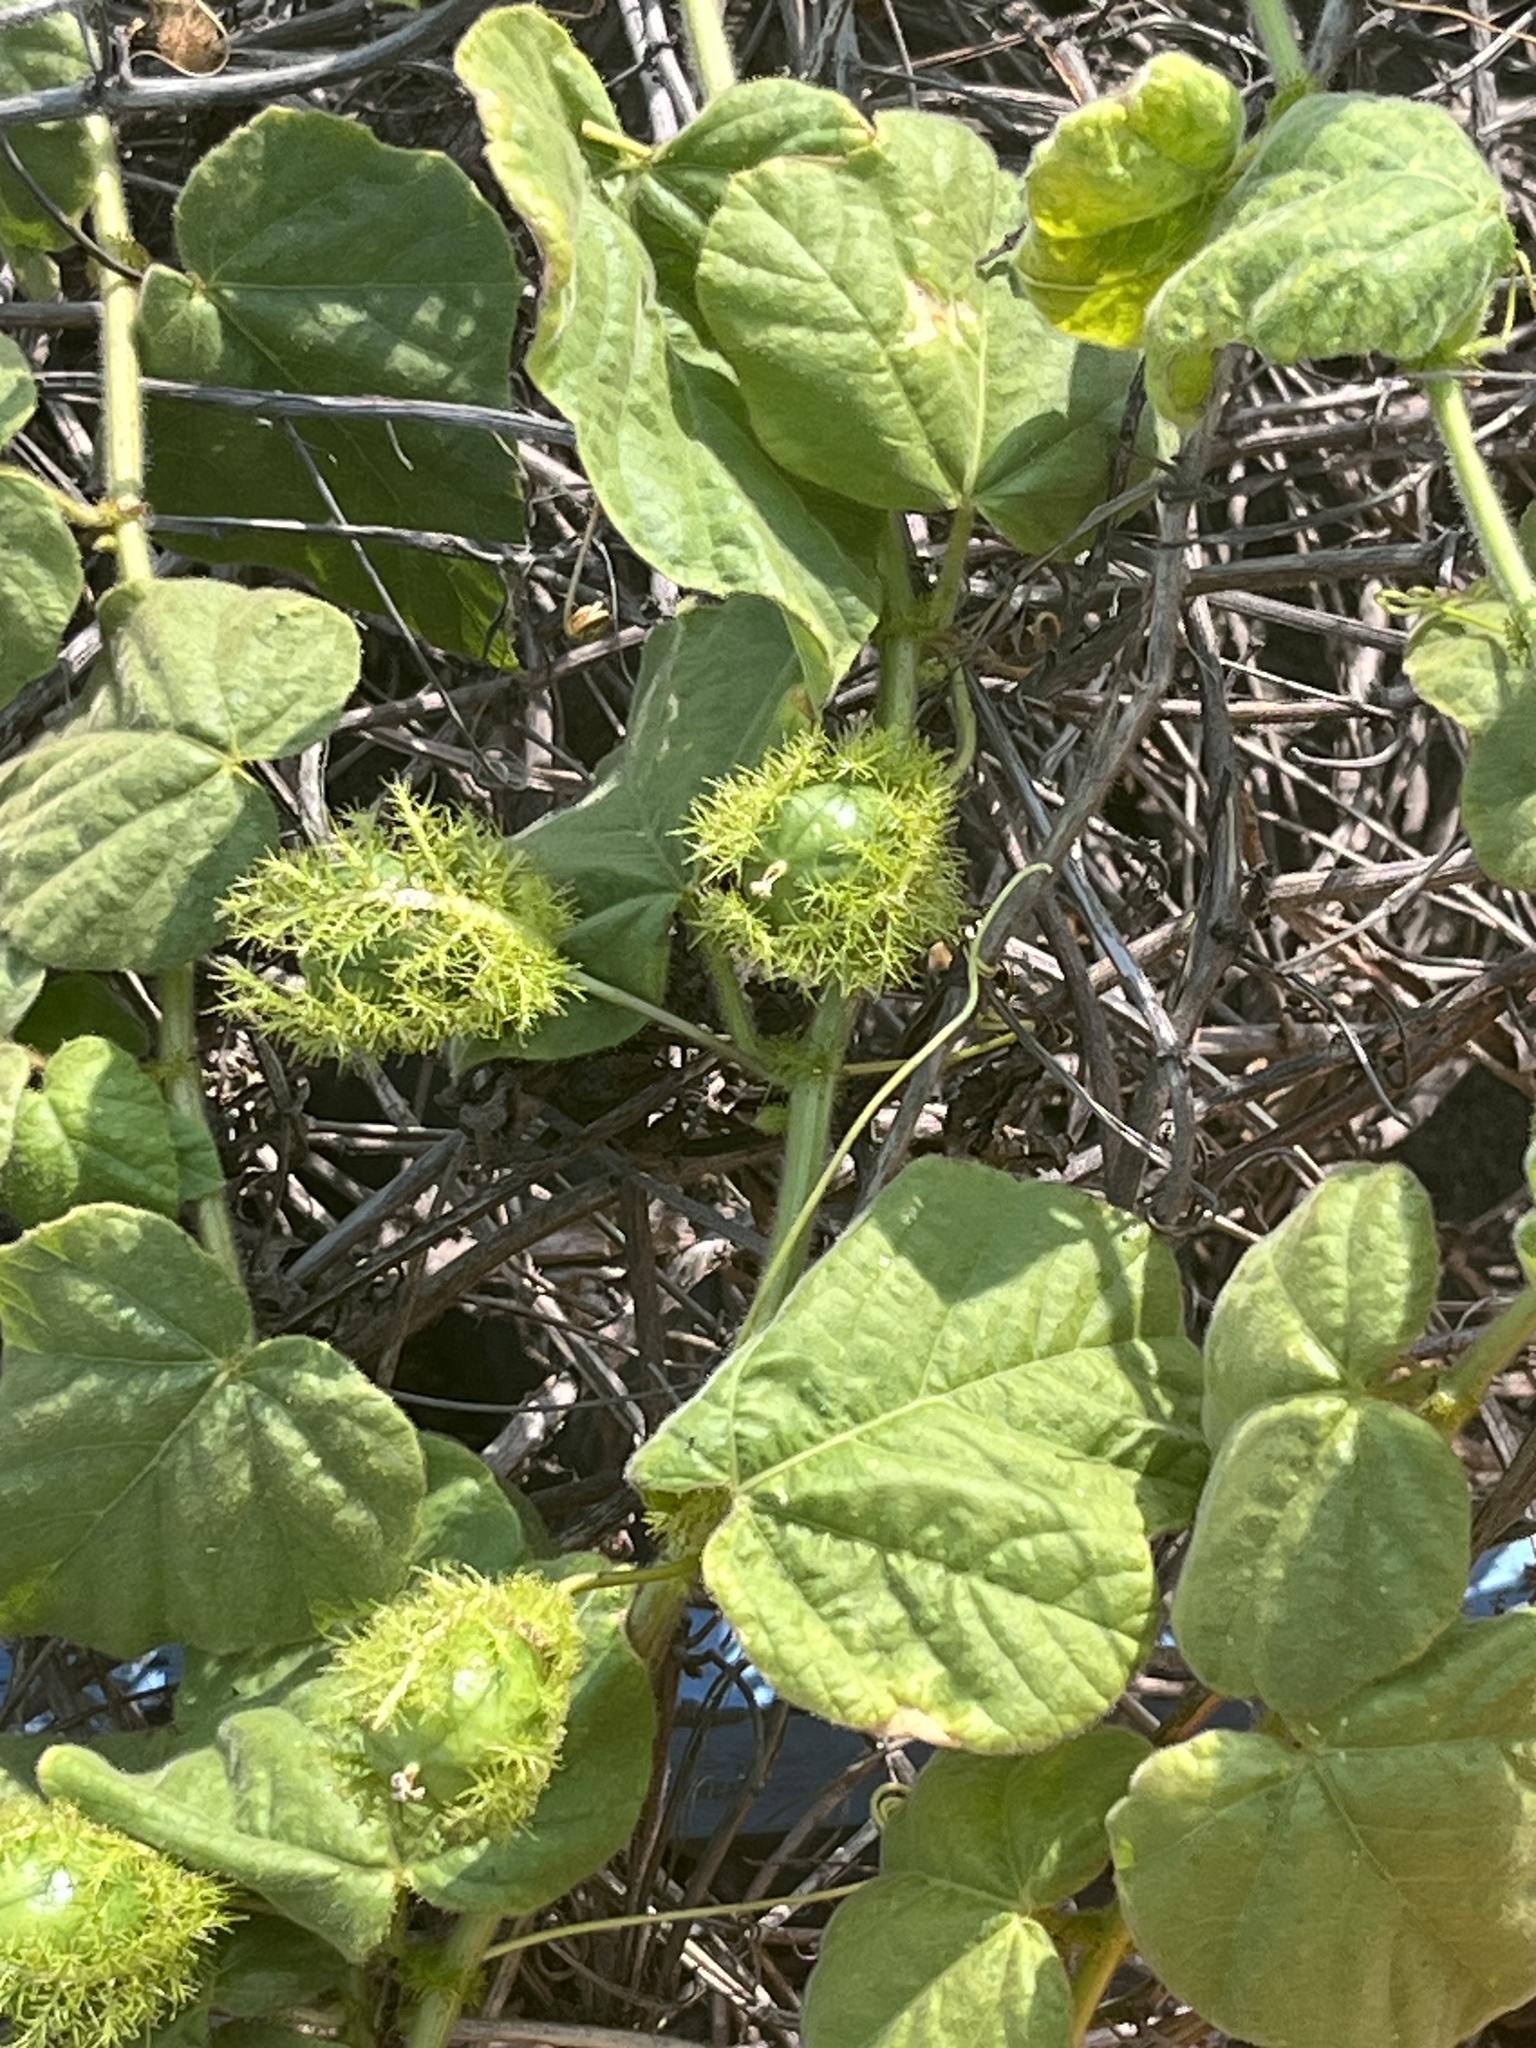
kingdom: Plantae
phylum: Tracheophyta
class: Magnoliopsida
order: Malpighiales
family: Passifloraceae
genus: Passiflora
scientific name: Passiflora vesicaria
